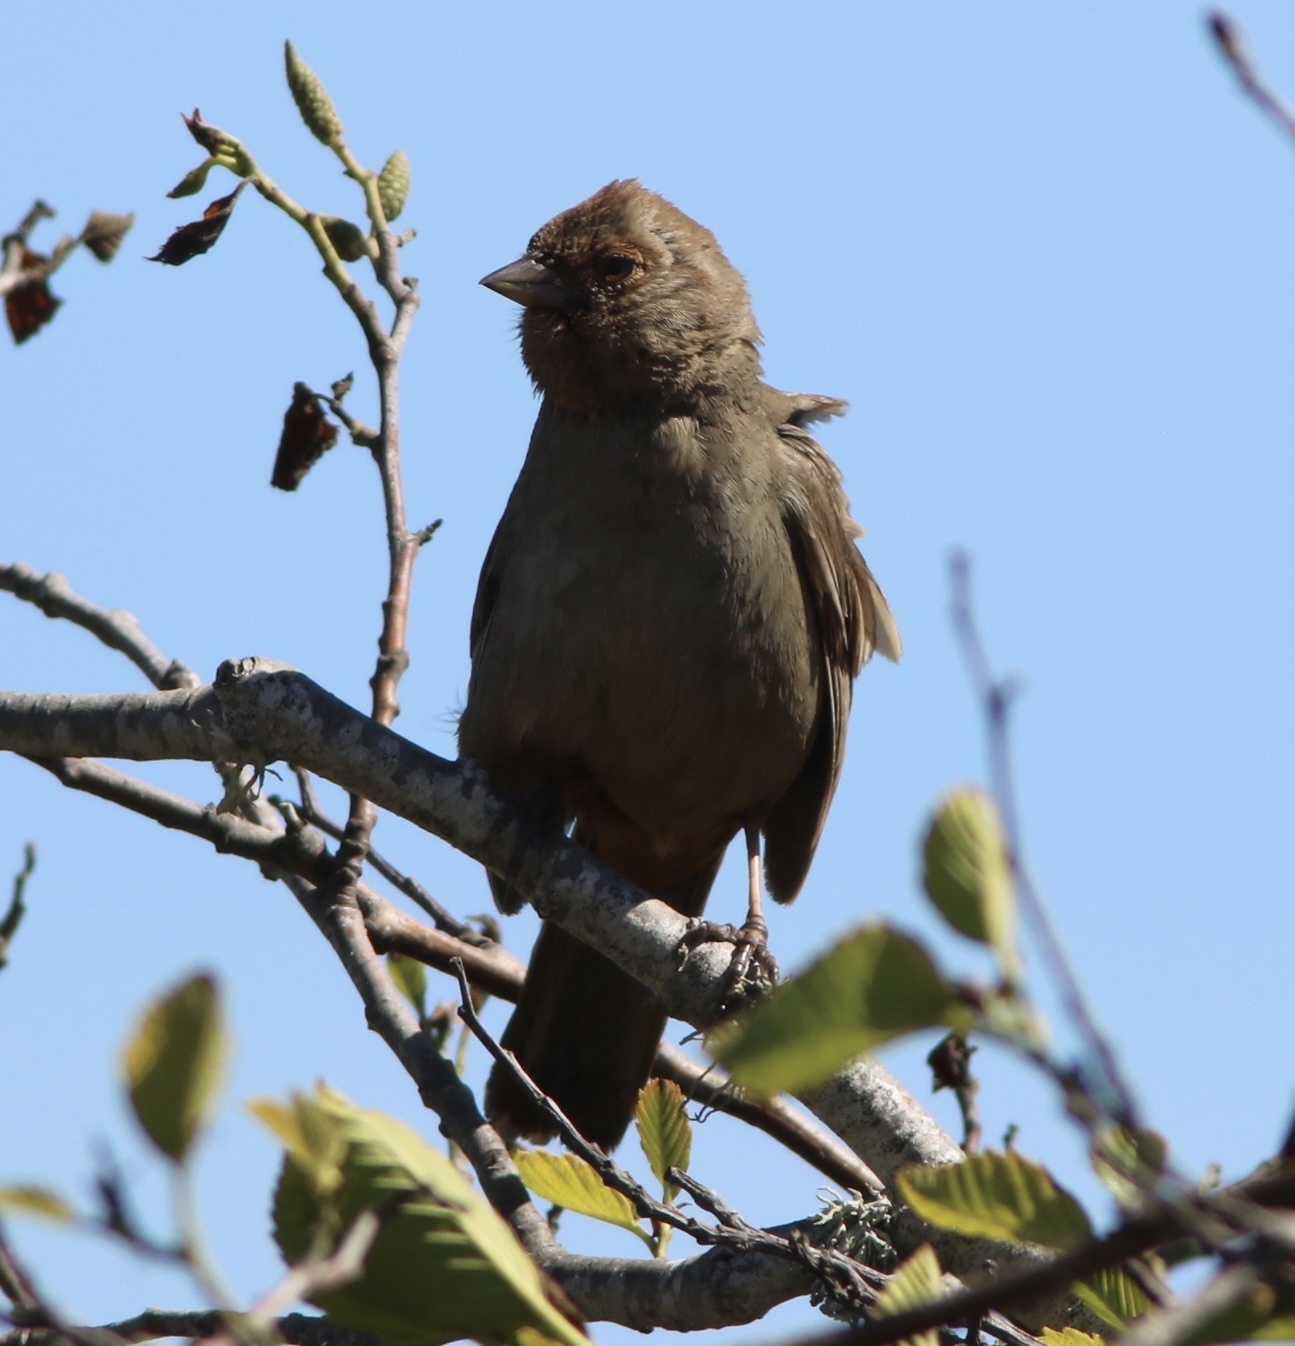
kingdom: Animalia
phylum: Chordata
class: Aves
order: Passeriformes
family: Passerellidae
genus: Melozone
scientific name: Melozone crissalis
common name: California towhee
